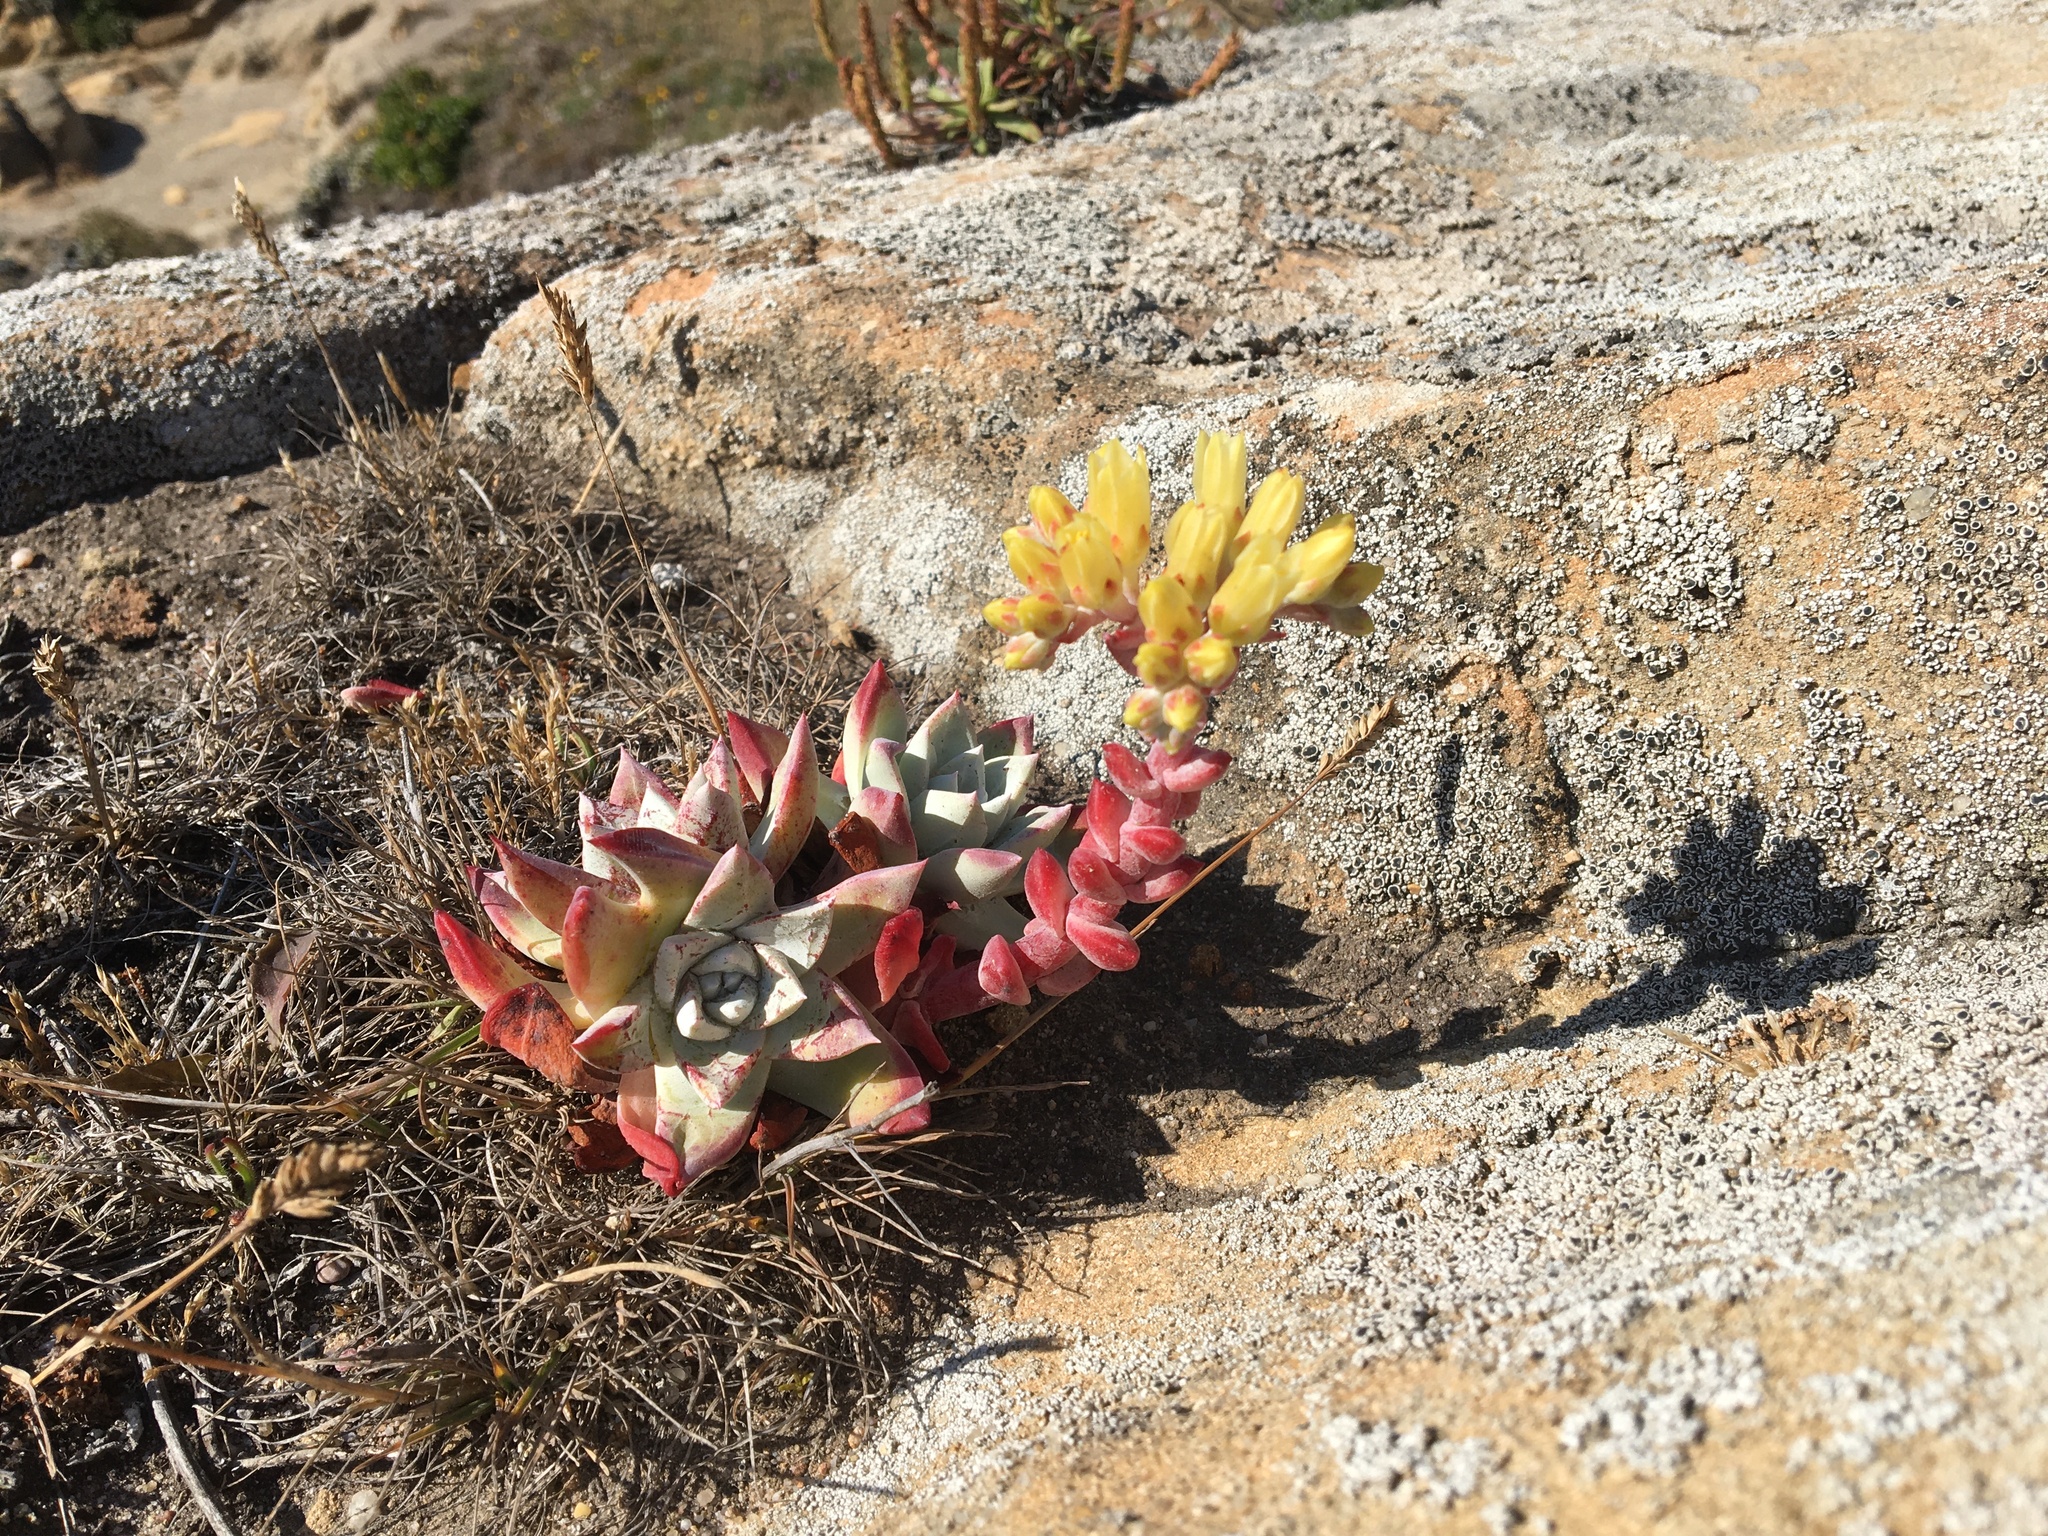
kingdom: Plantae
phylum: Tracheophyta
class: Magnoliopsida
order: Saxifragales
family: Crassulaceae
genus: Dudleya
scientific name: Dudleya farinosa
